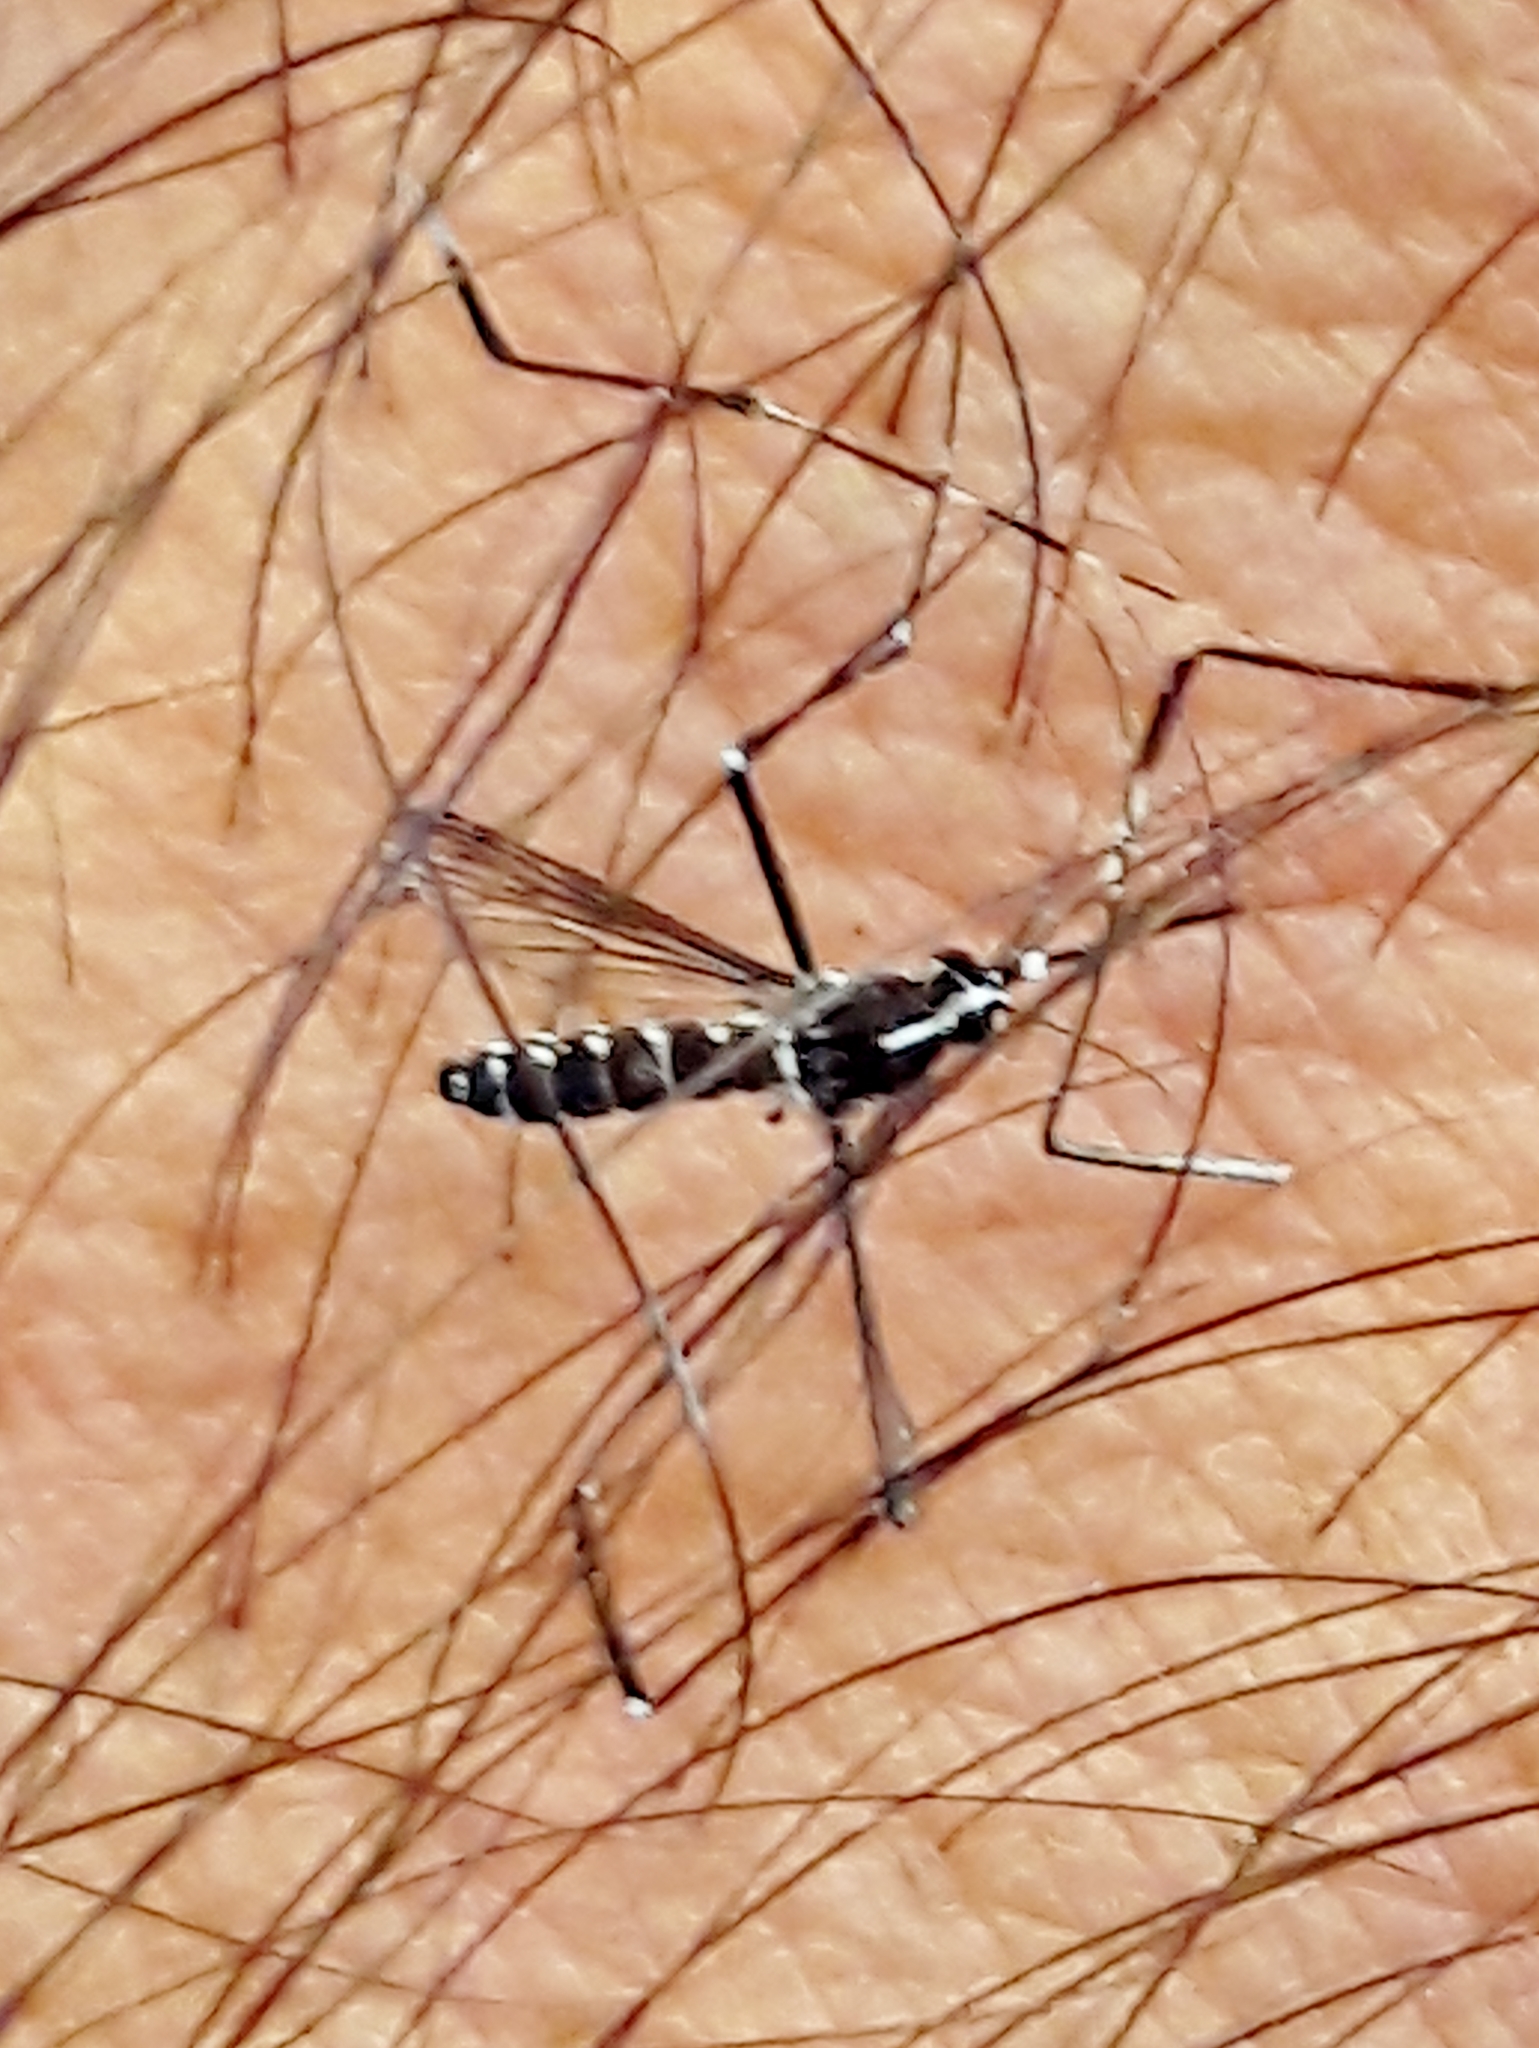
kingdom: Animalia
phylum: Arthropoda
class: Insecta
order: Diptera
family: Culicidae
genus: Aedes
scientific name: Aedes albopictus
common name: Tiger mosquito
